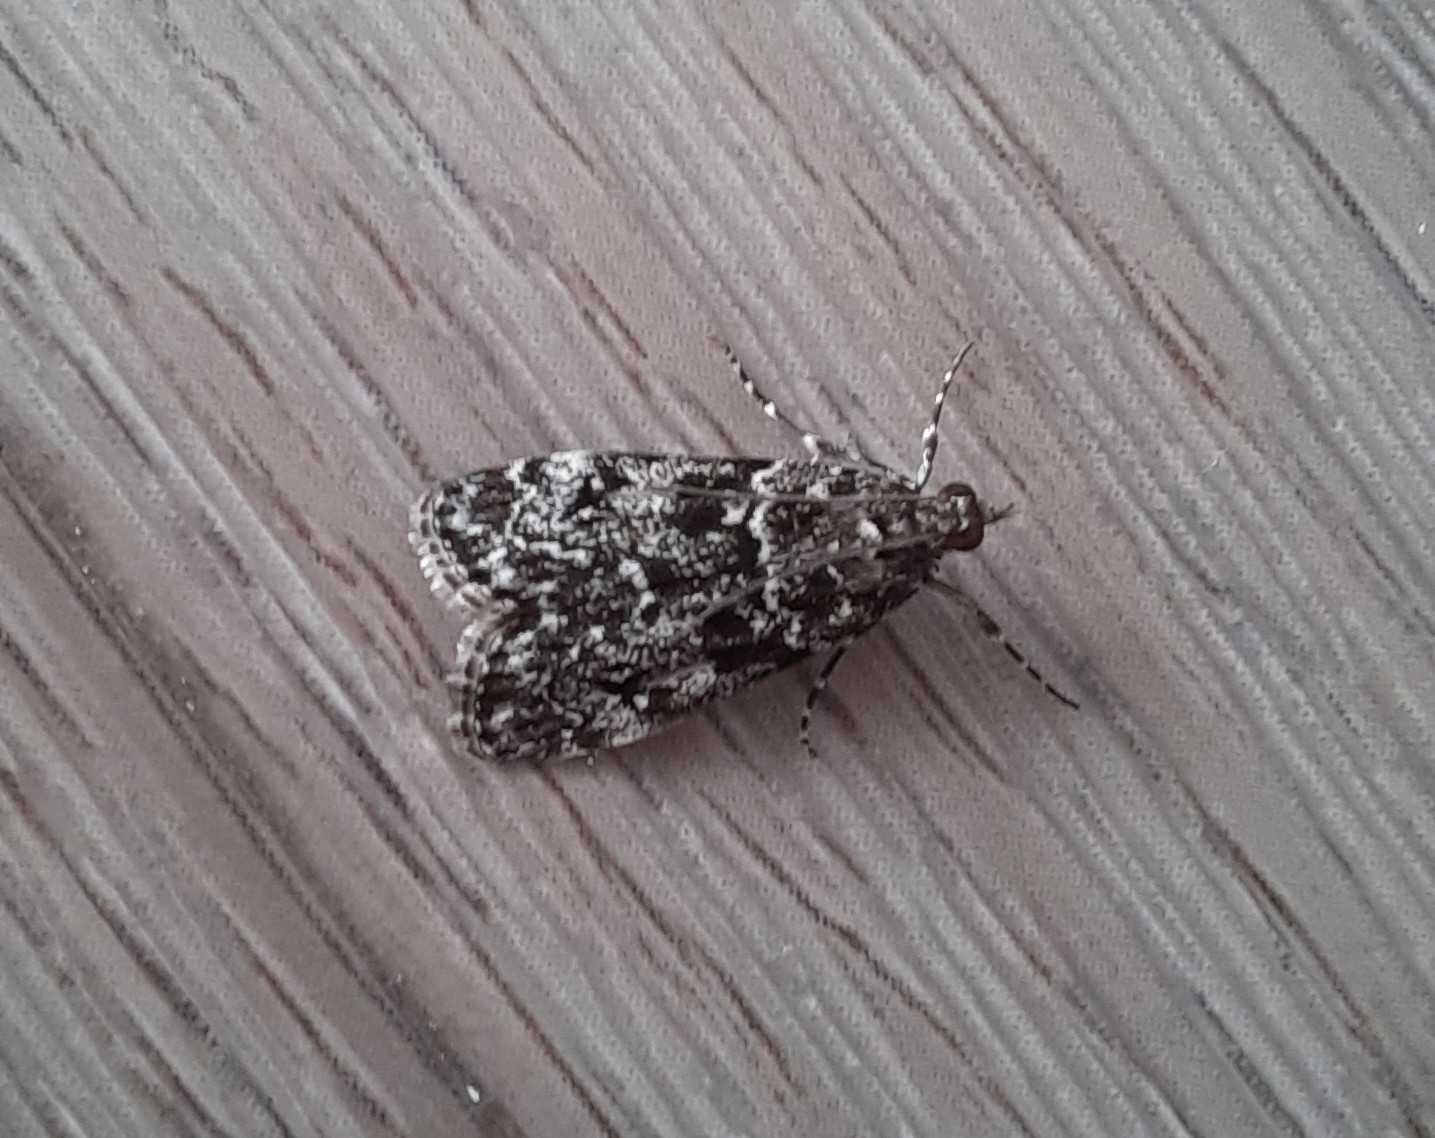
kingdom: Animalia
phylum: Arthropoda
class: Insecta
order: Lepidoptera
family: Crambidae
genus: Eudonia
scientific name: Eudonia philerga
